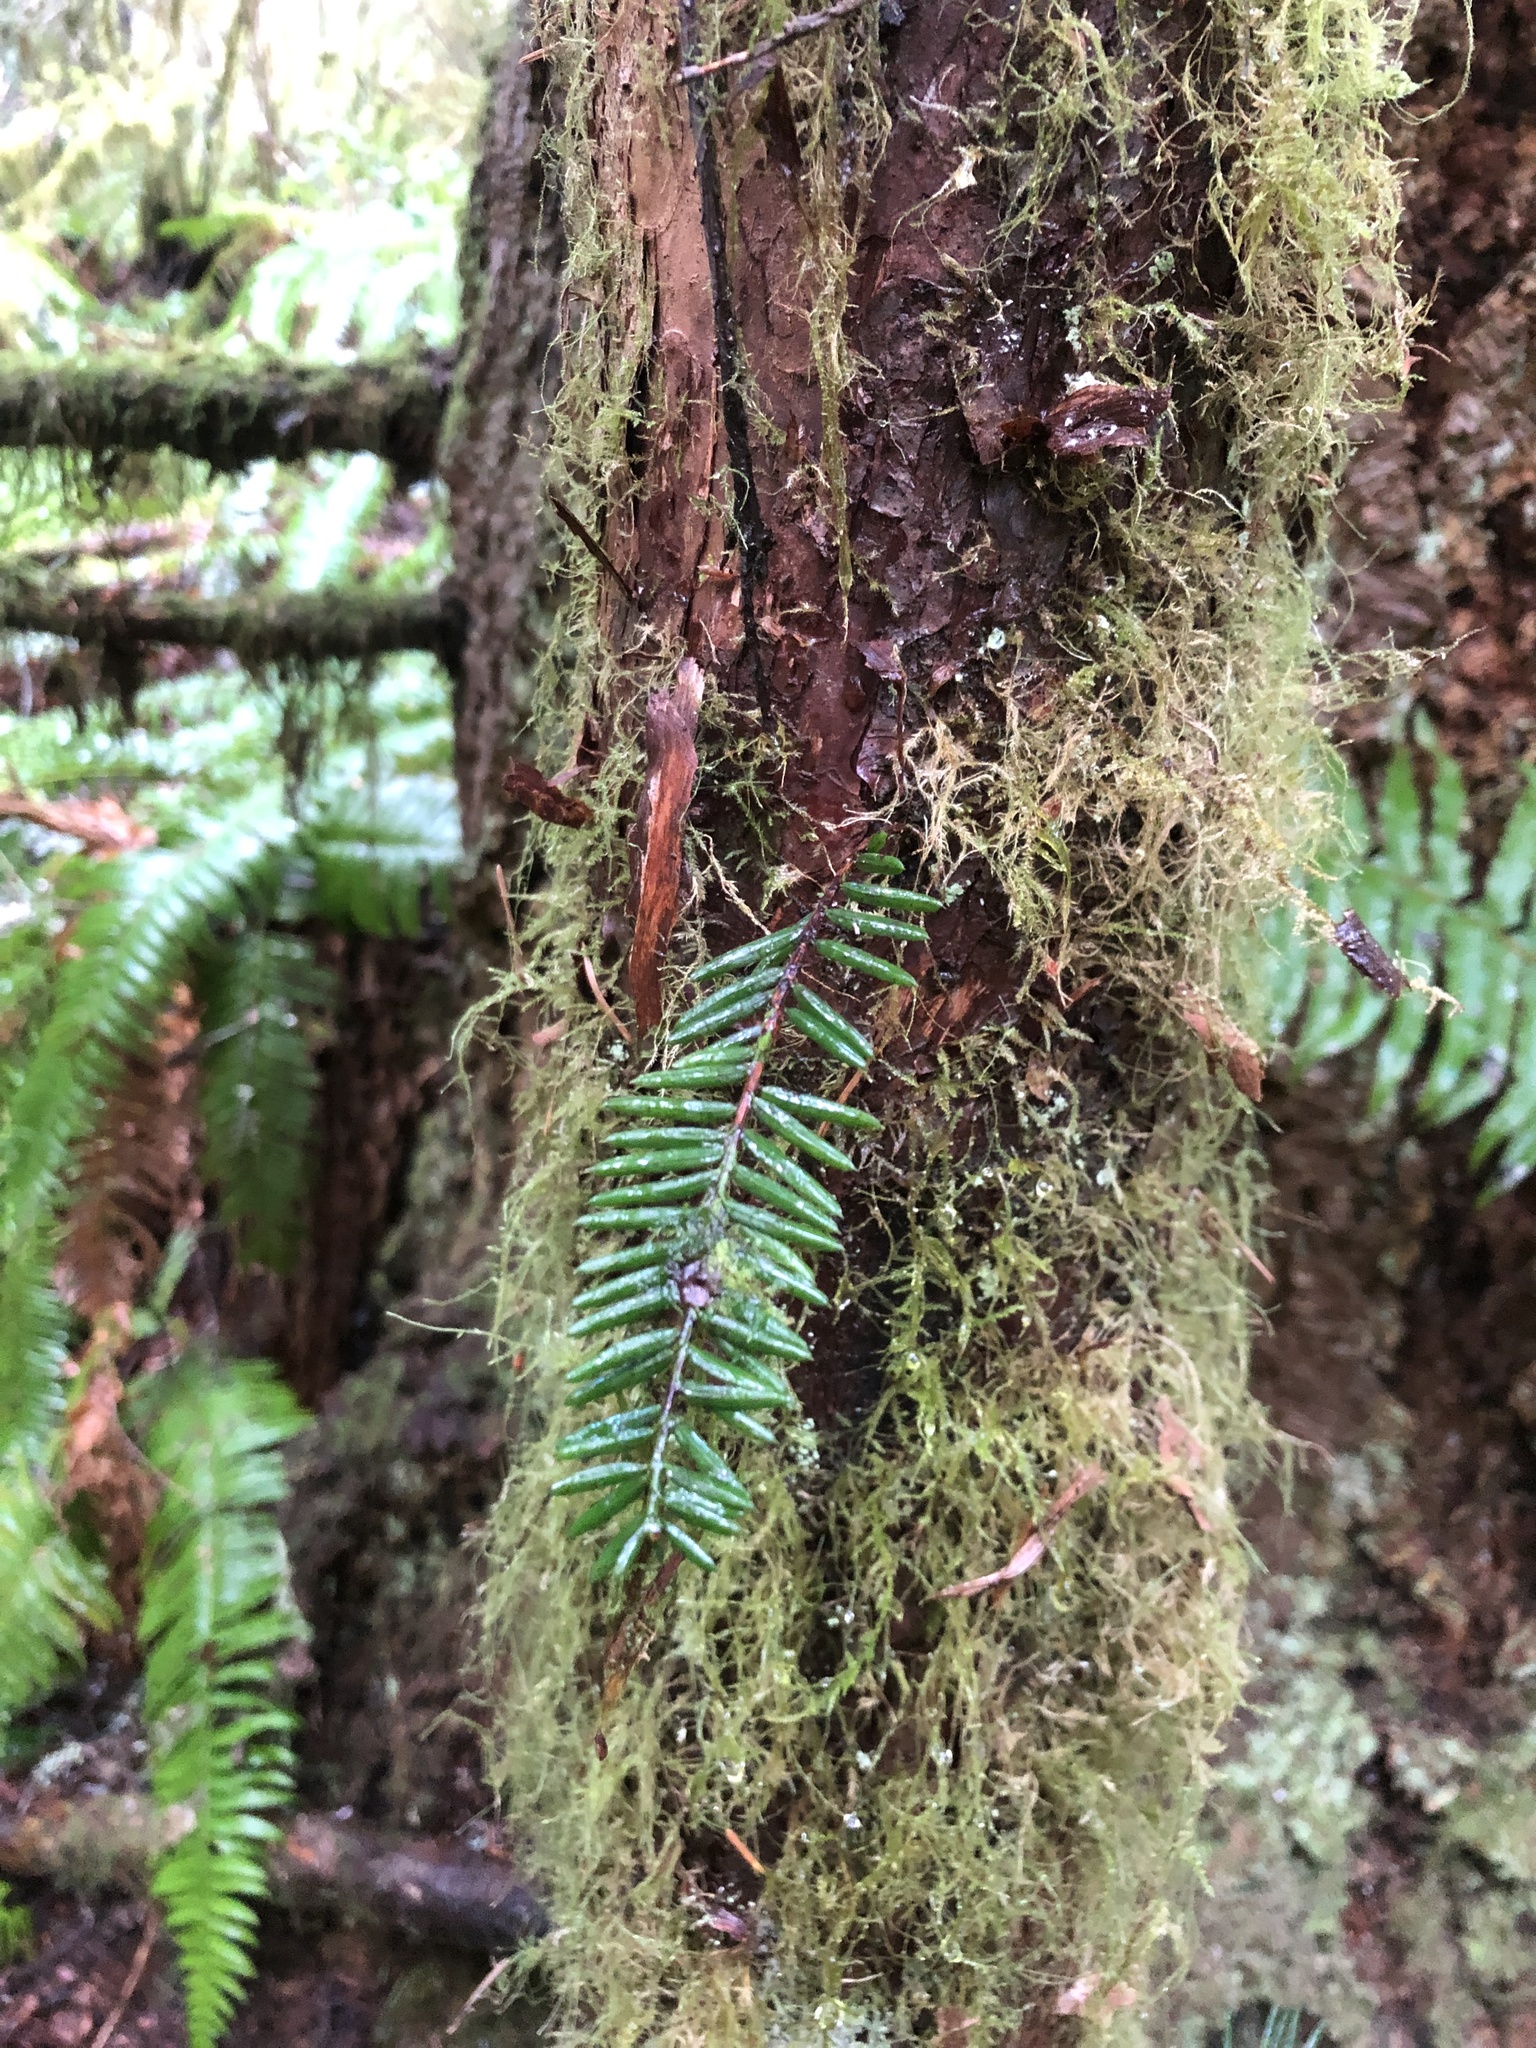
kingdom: Plantae
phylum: Tracheophyta
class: Pinopsida
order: Pinales
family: Taxaceae
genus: Taxus
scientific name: Taxus brevifolia
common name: Pacific yew
